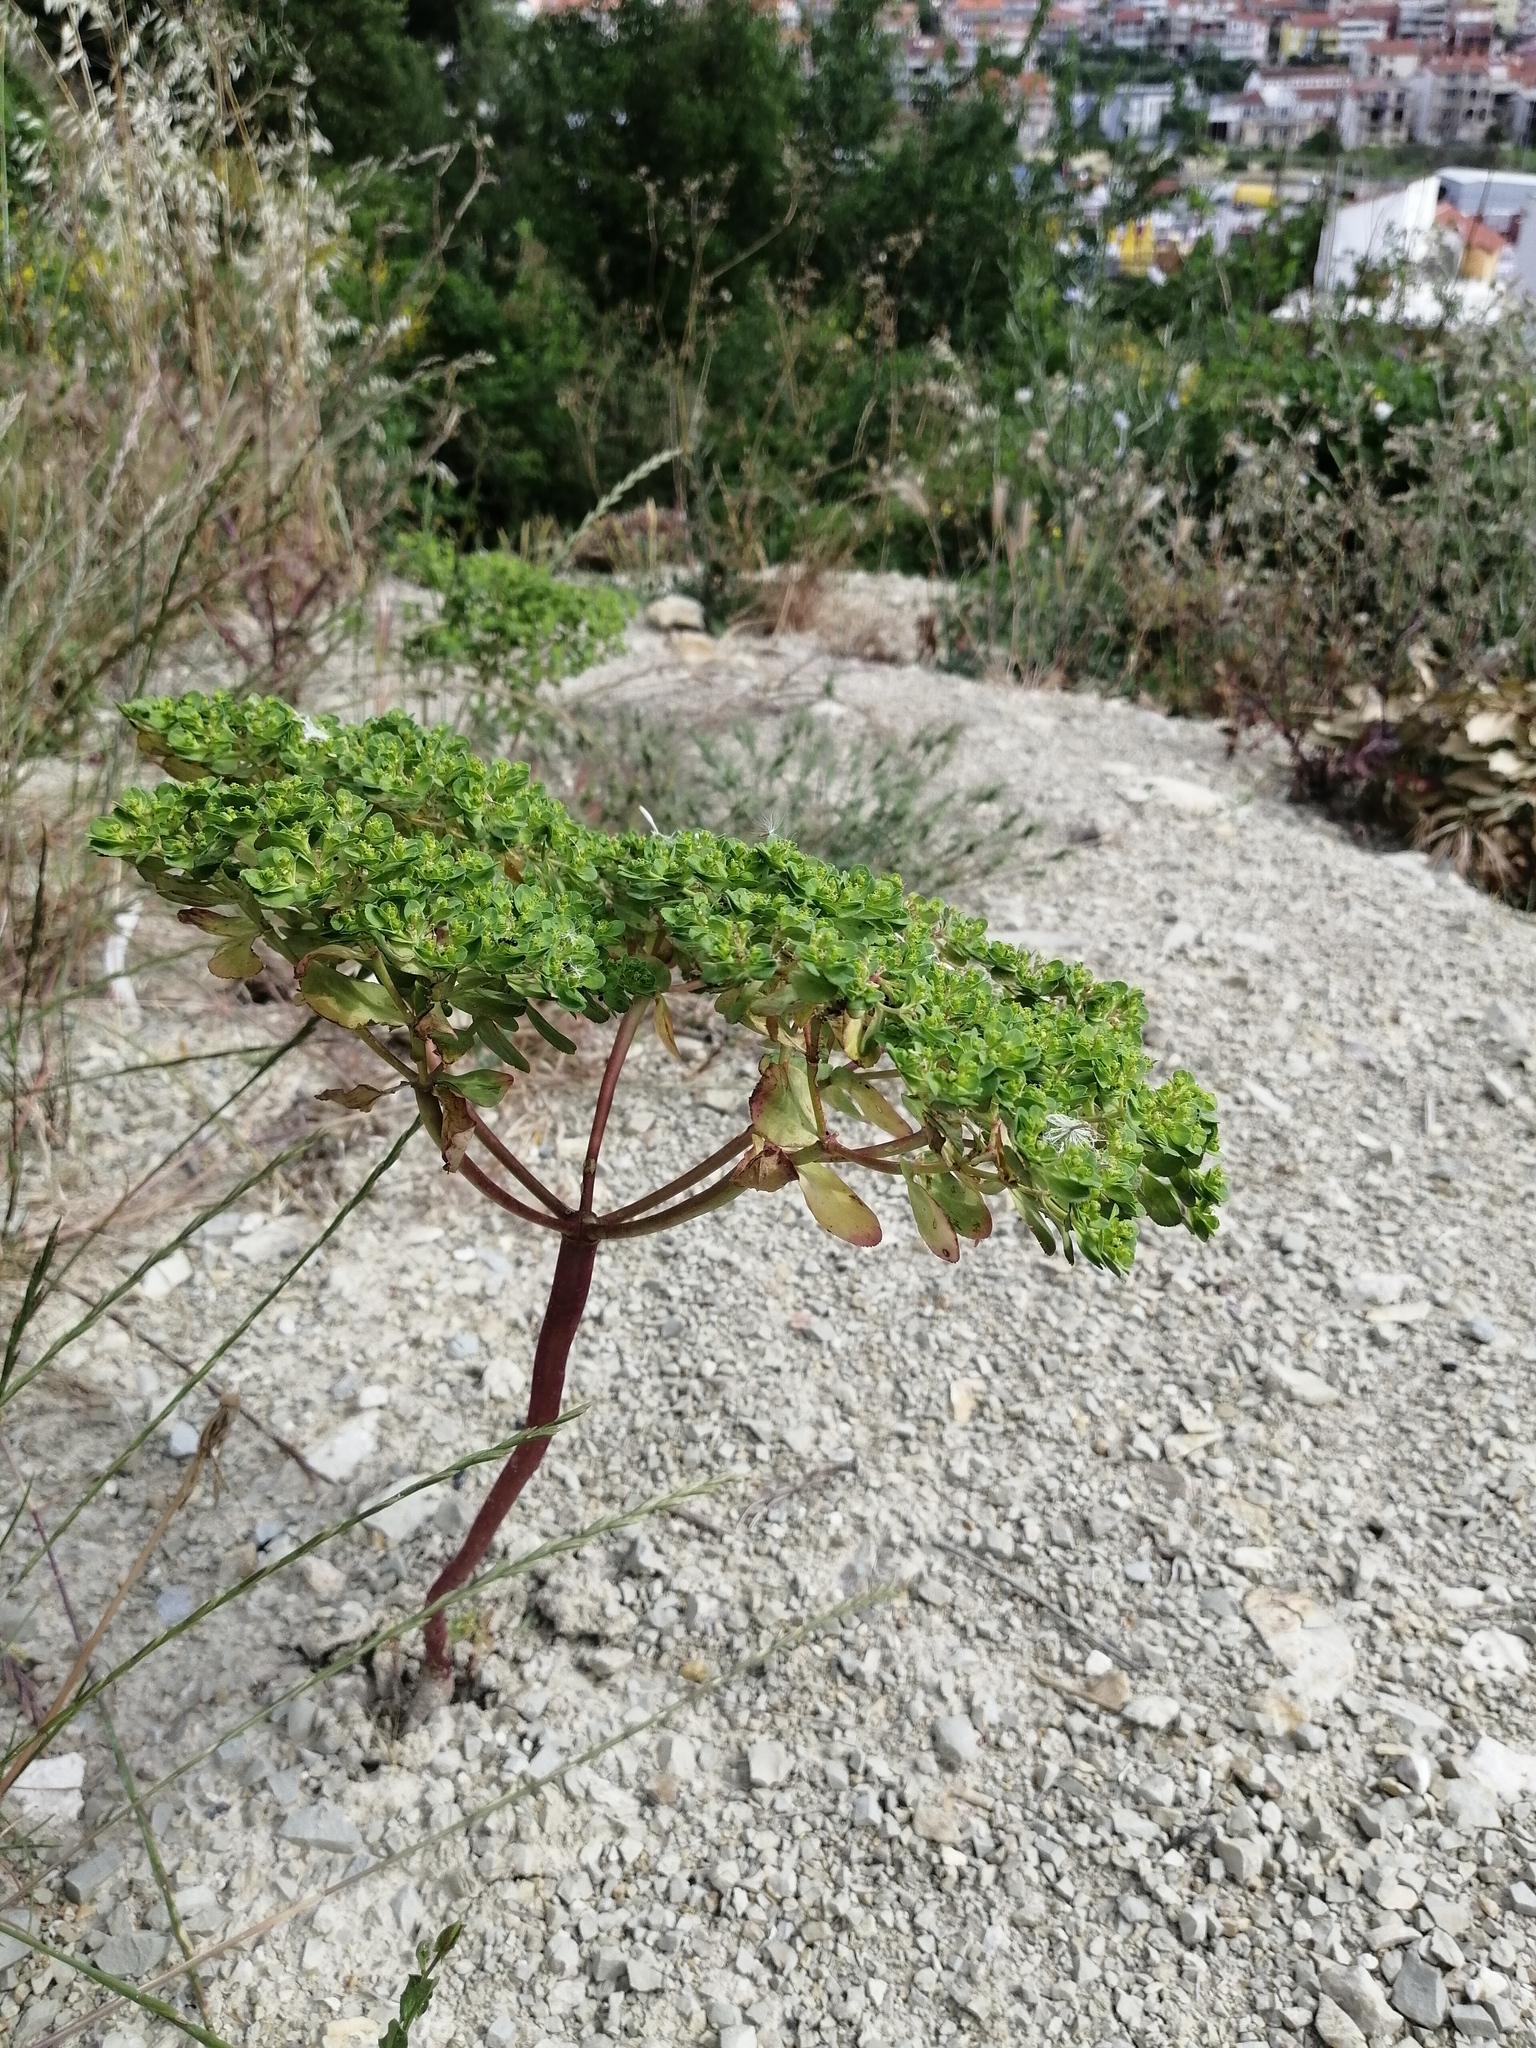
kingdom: Plantae
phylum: Tracheophyta
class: Magnoliopsida
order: Malpighiales
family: Euphorbiaceae
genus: Euphorbia
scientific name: Euphorbia helioscopia
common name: Sun spurge
